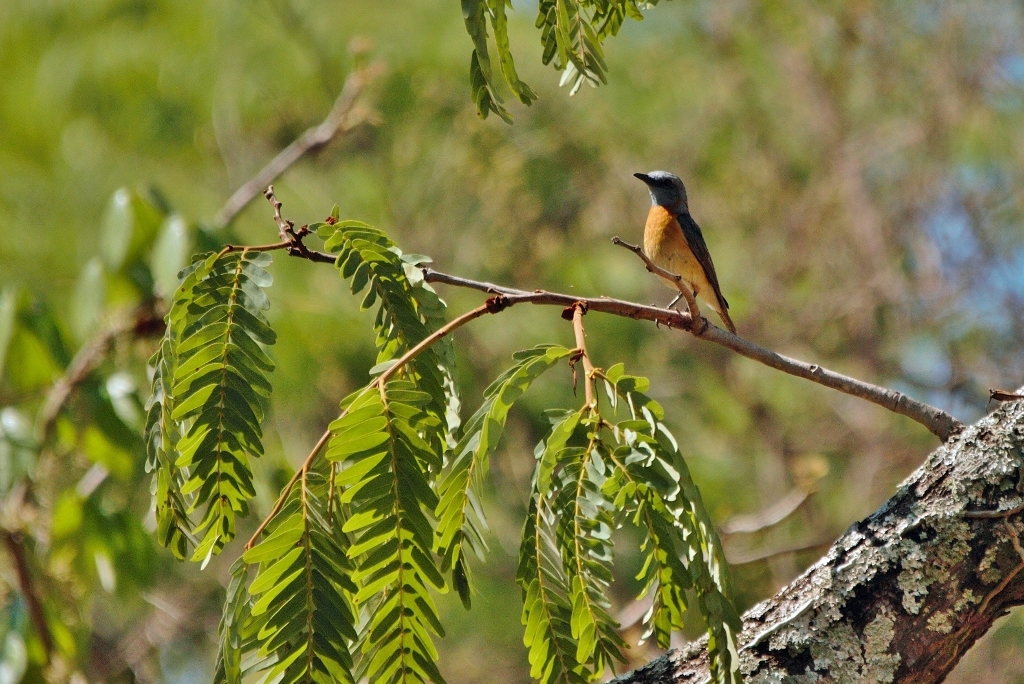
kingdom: Animalia
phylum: Chordata
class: Aves
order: Passeriformes
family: Muscicapidae
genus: Monticola
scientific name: Monticola angolensis
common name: Miombo rock thrush
